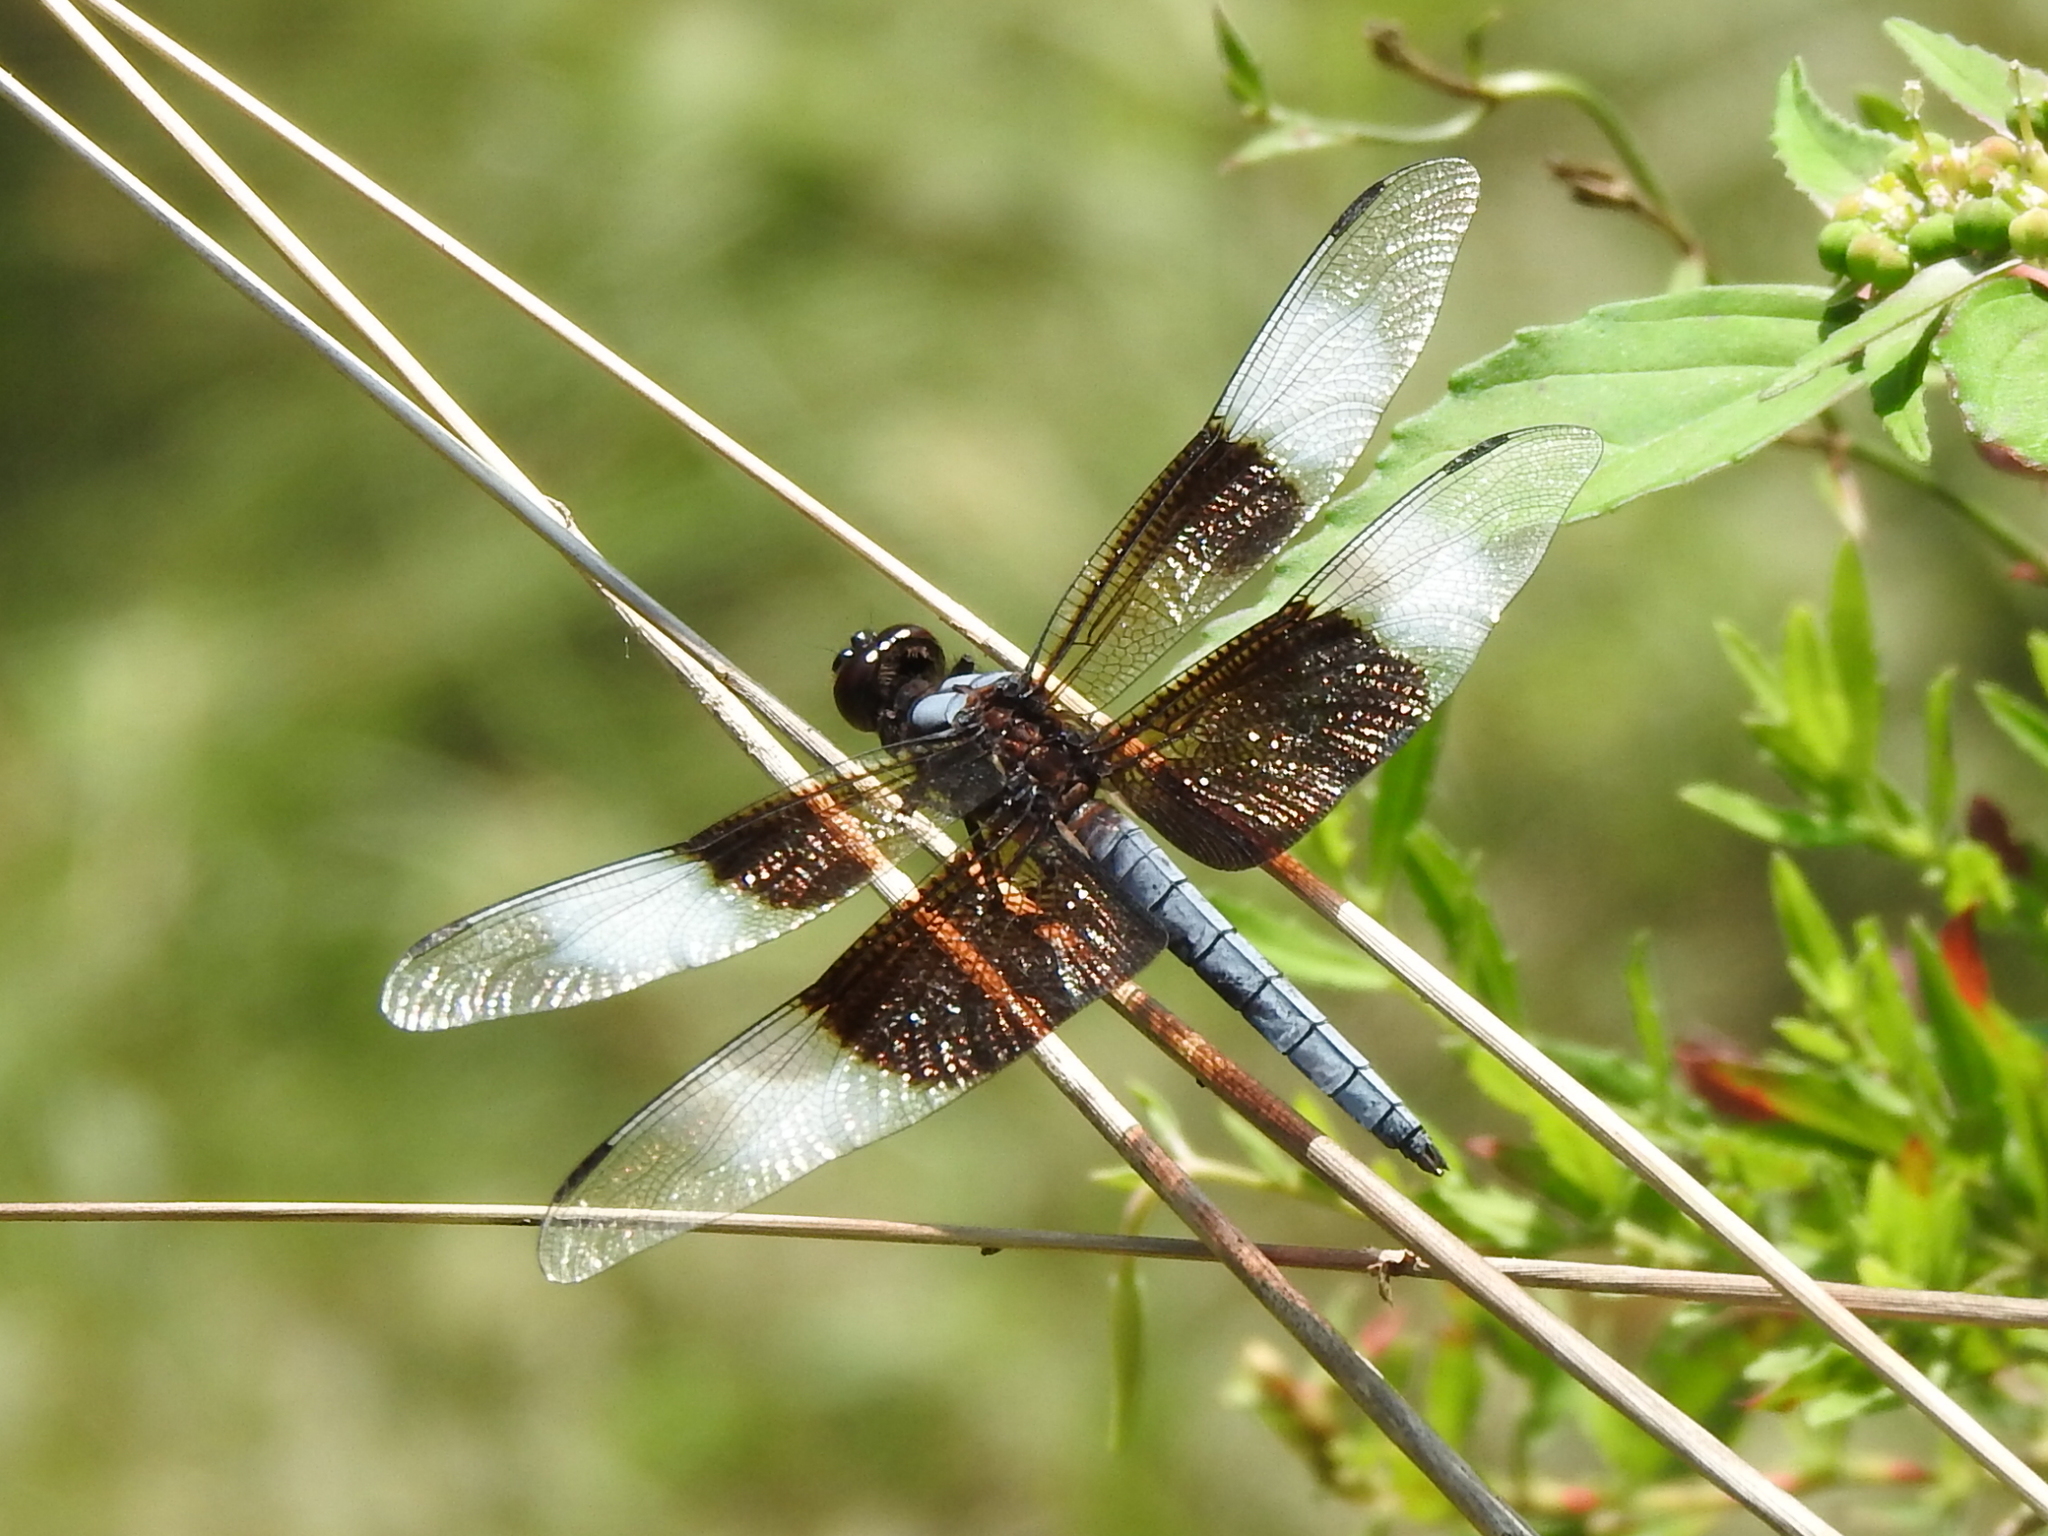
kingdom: Animalia
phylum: Arthropoda
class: Insecta
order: Odonata
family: Libellulidae
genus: Libellula
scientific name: Libellula luctuosa
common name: Widow skimmer
